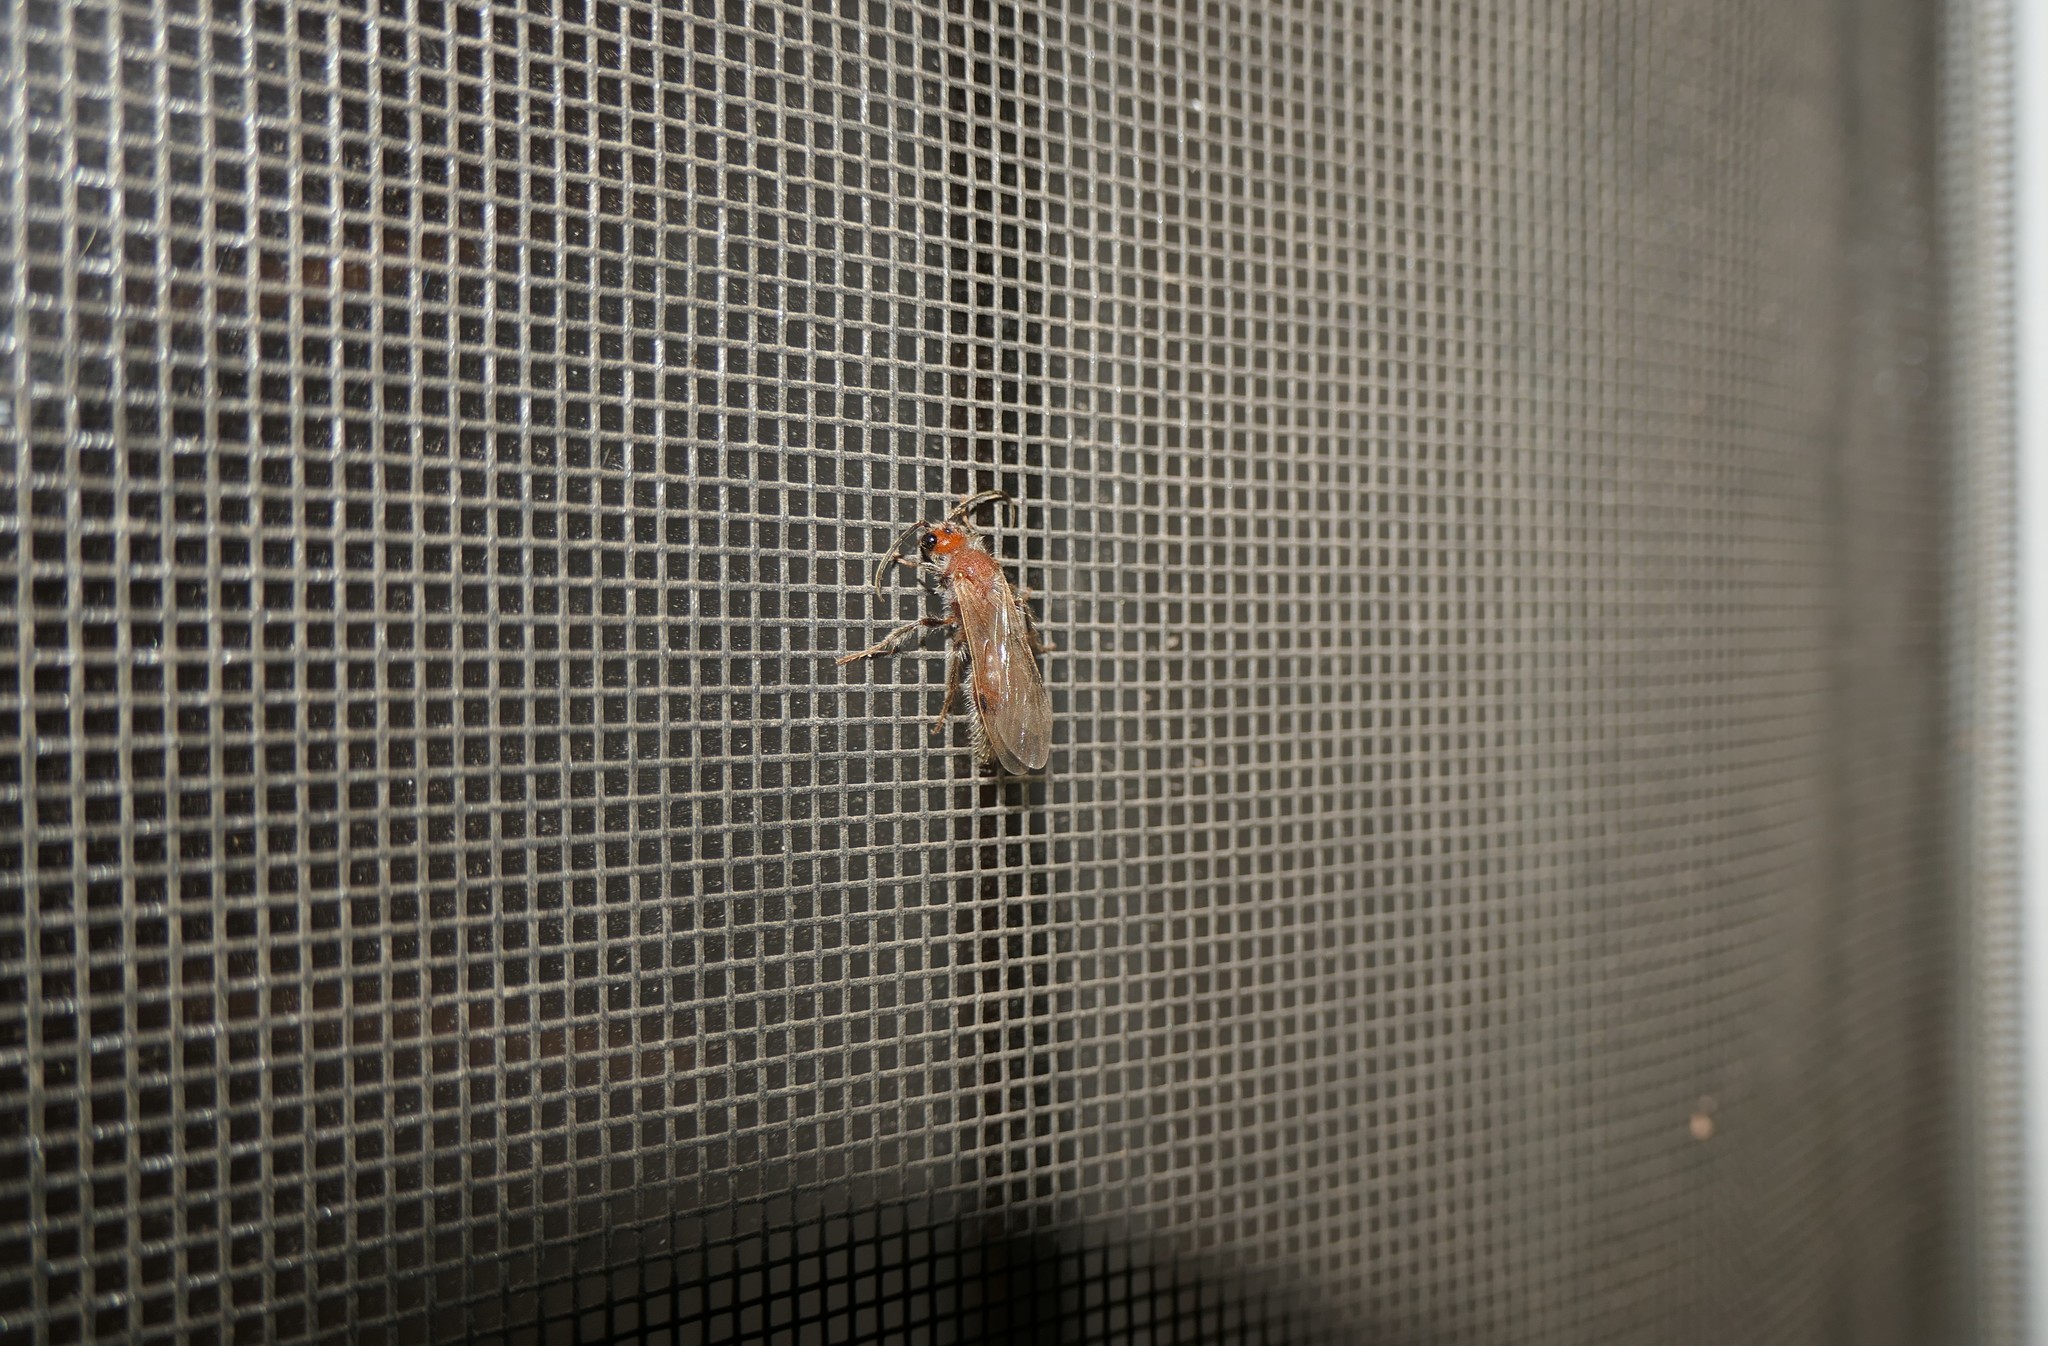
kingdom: Animalia
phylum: Arthropoda
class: Insecta
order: Hymenoptera
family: Mutillidae
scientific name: Mutillidae
